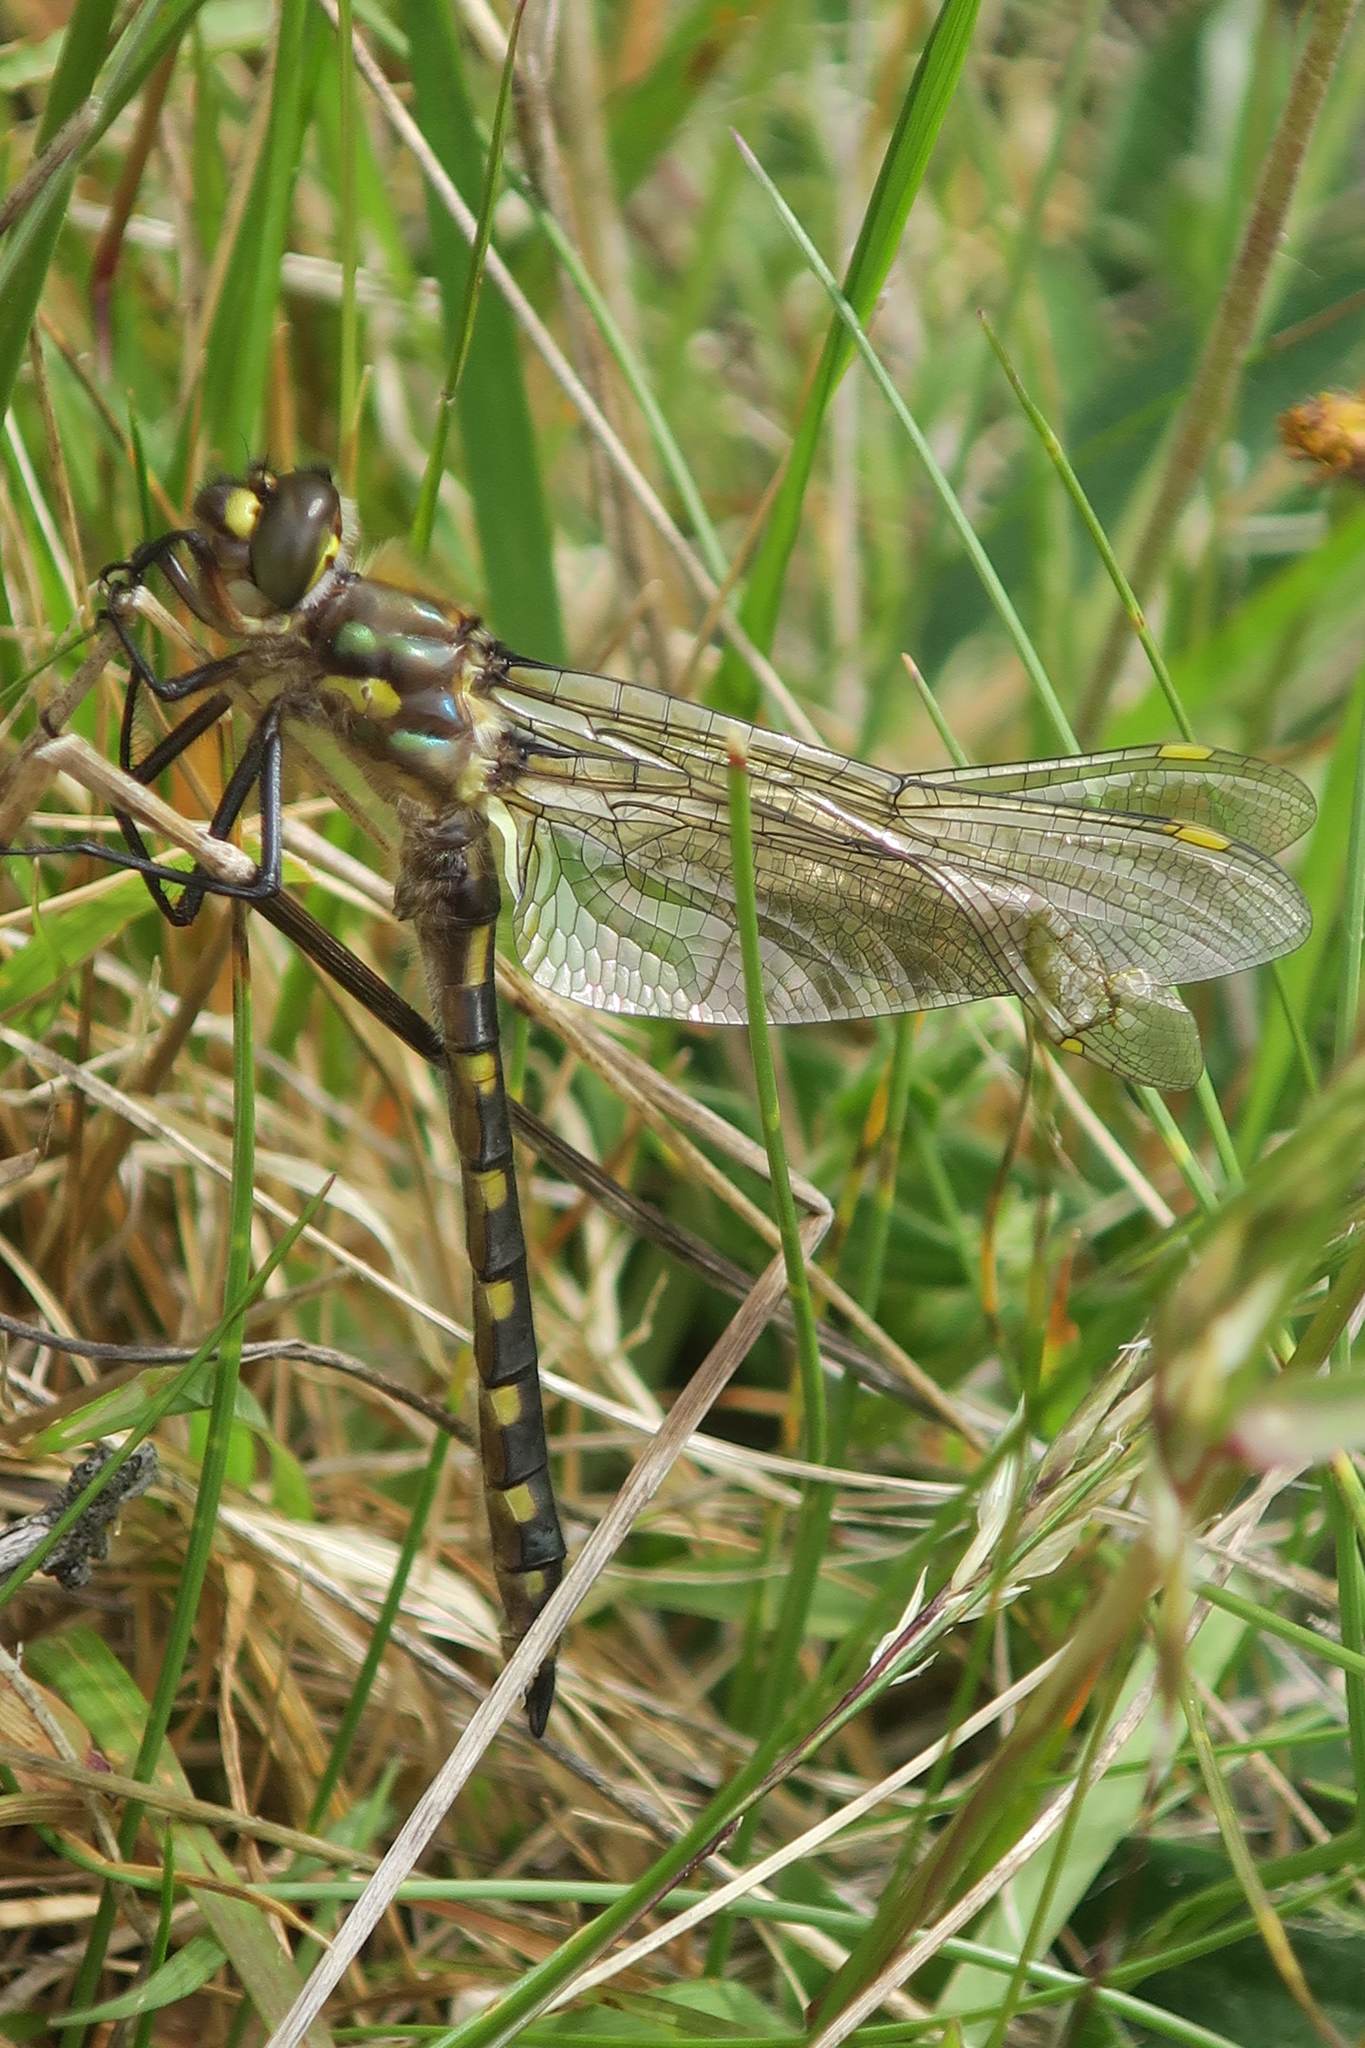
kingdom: Animalia
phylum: Arthropoda
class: Insecta
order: Odonata
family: Corduliidae
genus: Procordulia
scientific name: Procordulia grayi
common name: Yellow spotted dragonfly
